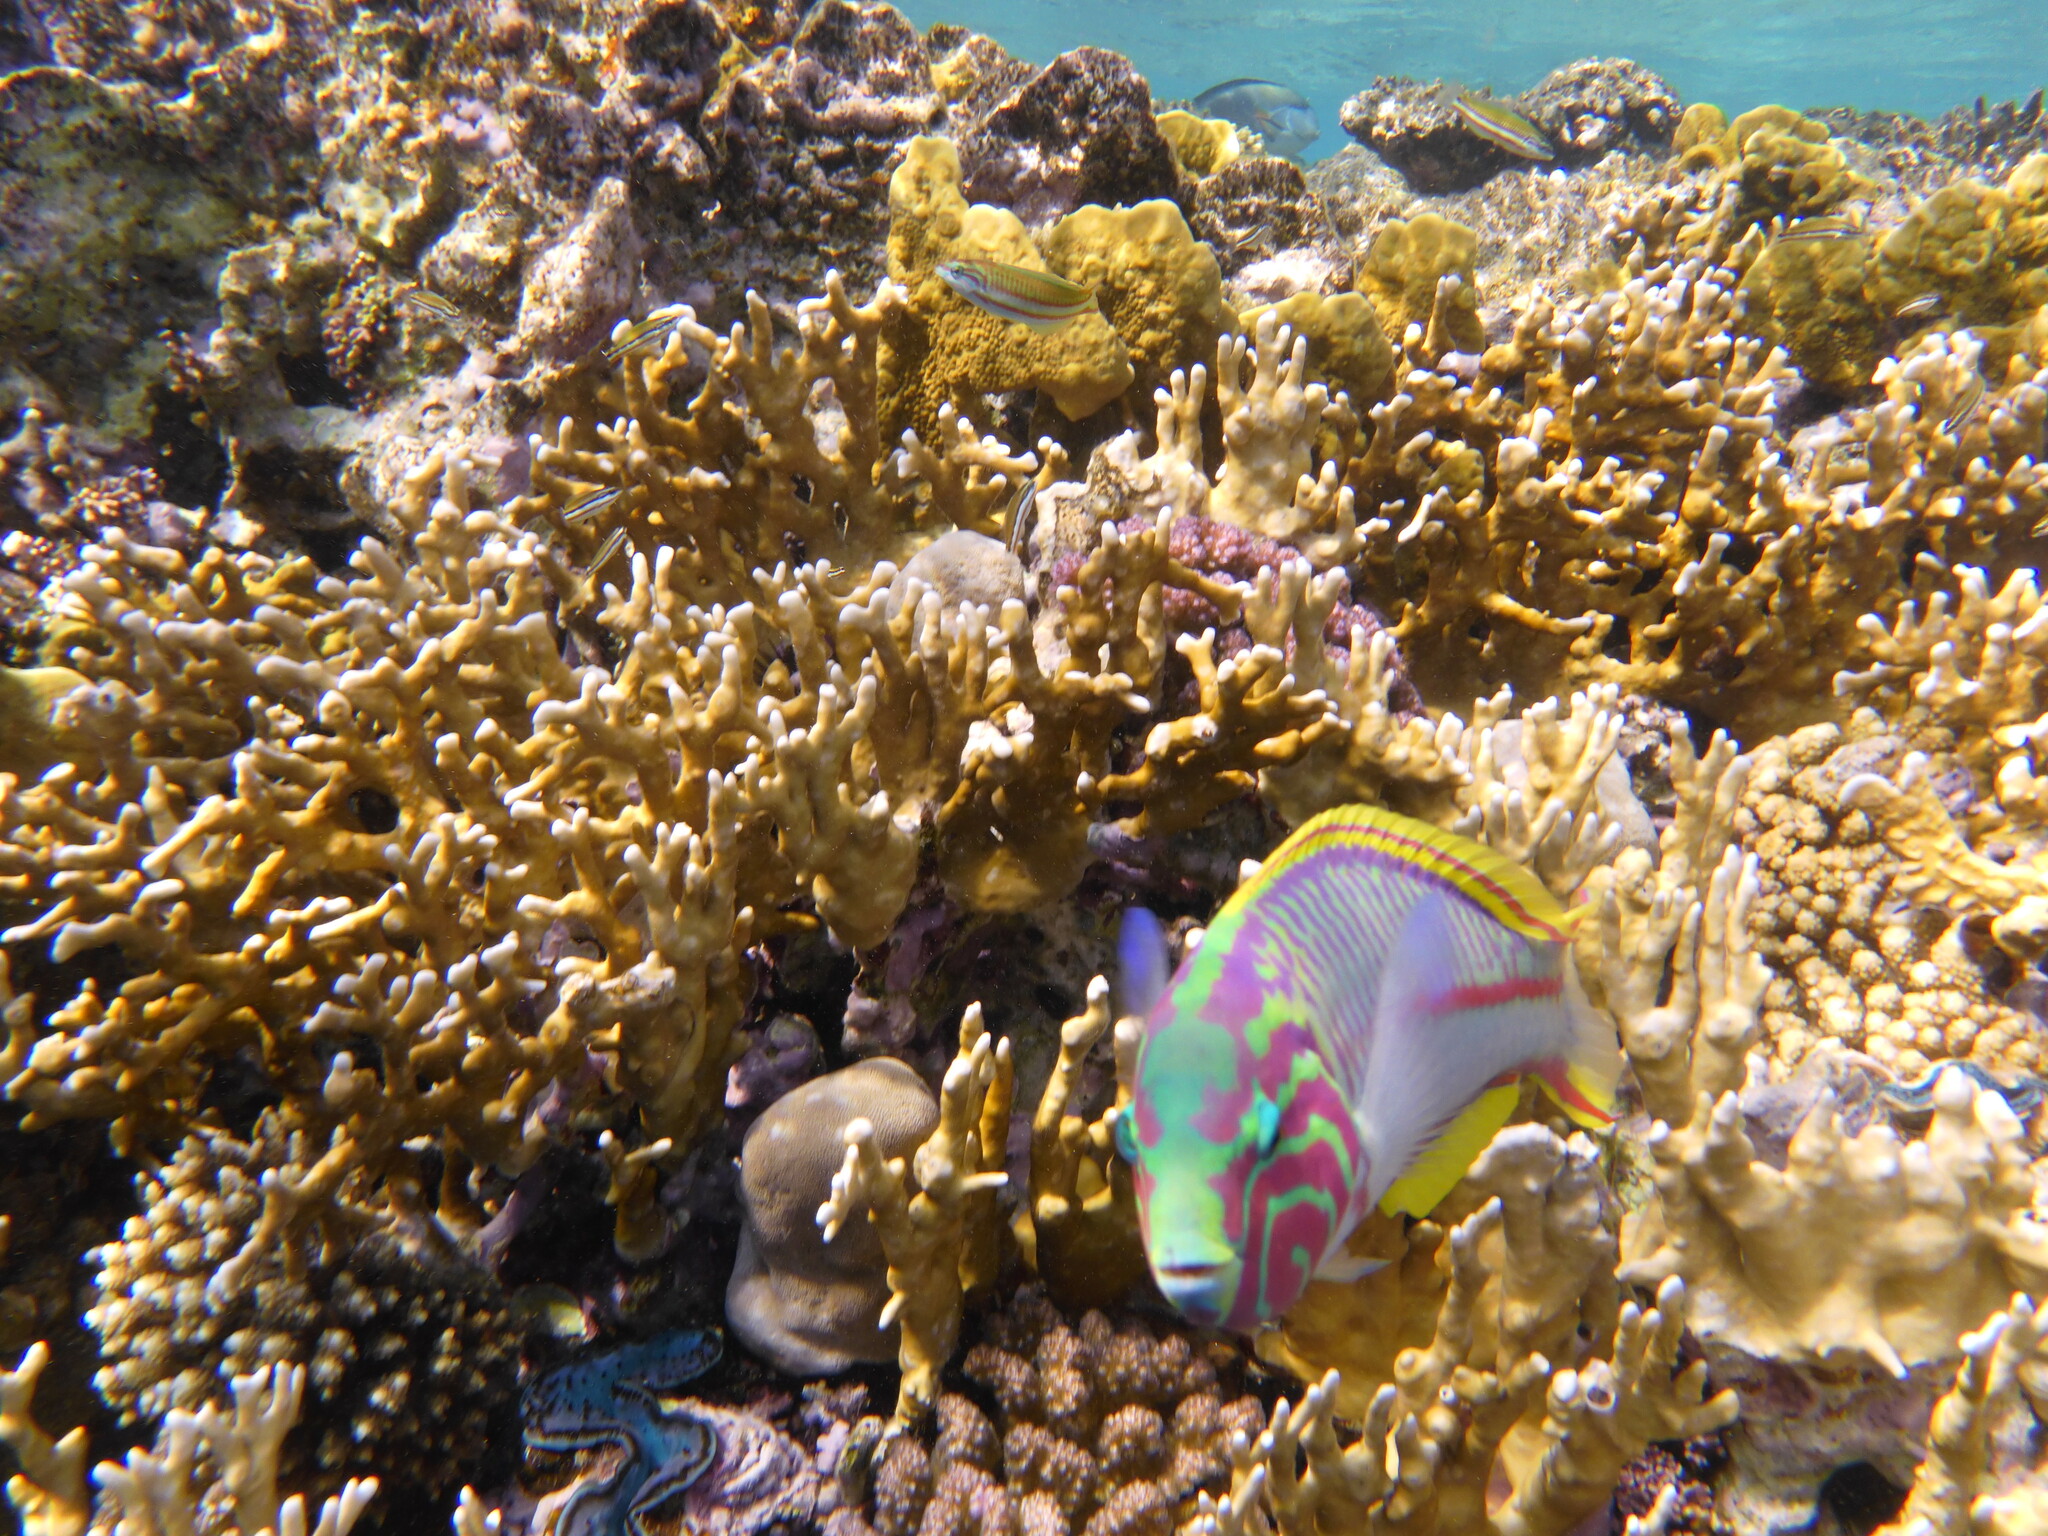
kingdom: Animalia
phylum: Chordata
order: Perciformes
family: Labridae
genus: Thalassoma
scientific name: Thalassoma rueppellii
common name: Klunzinger's wrasse
